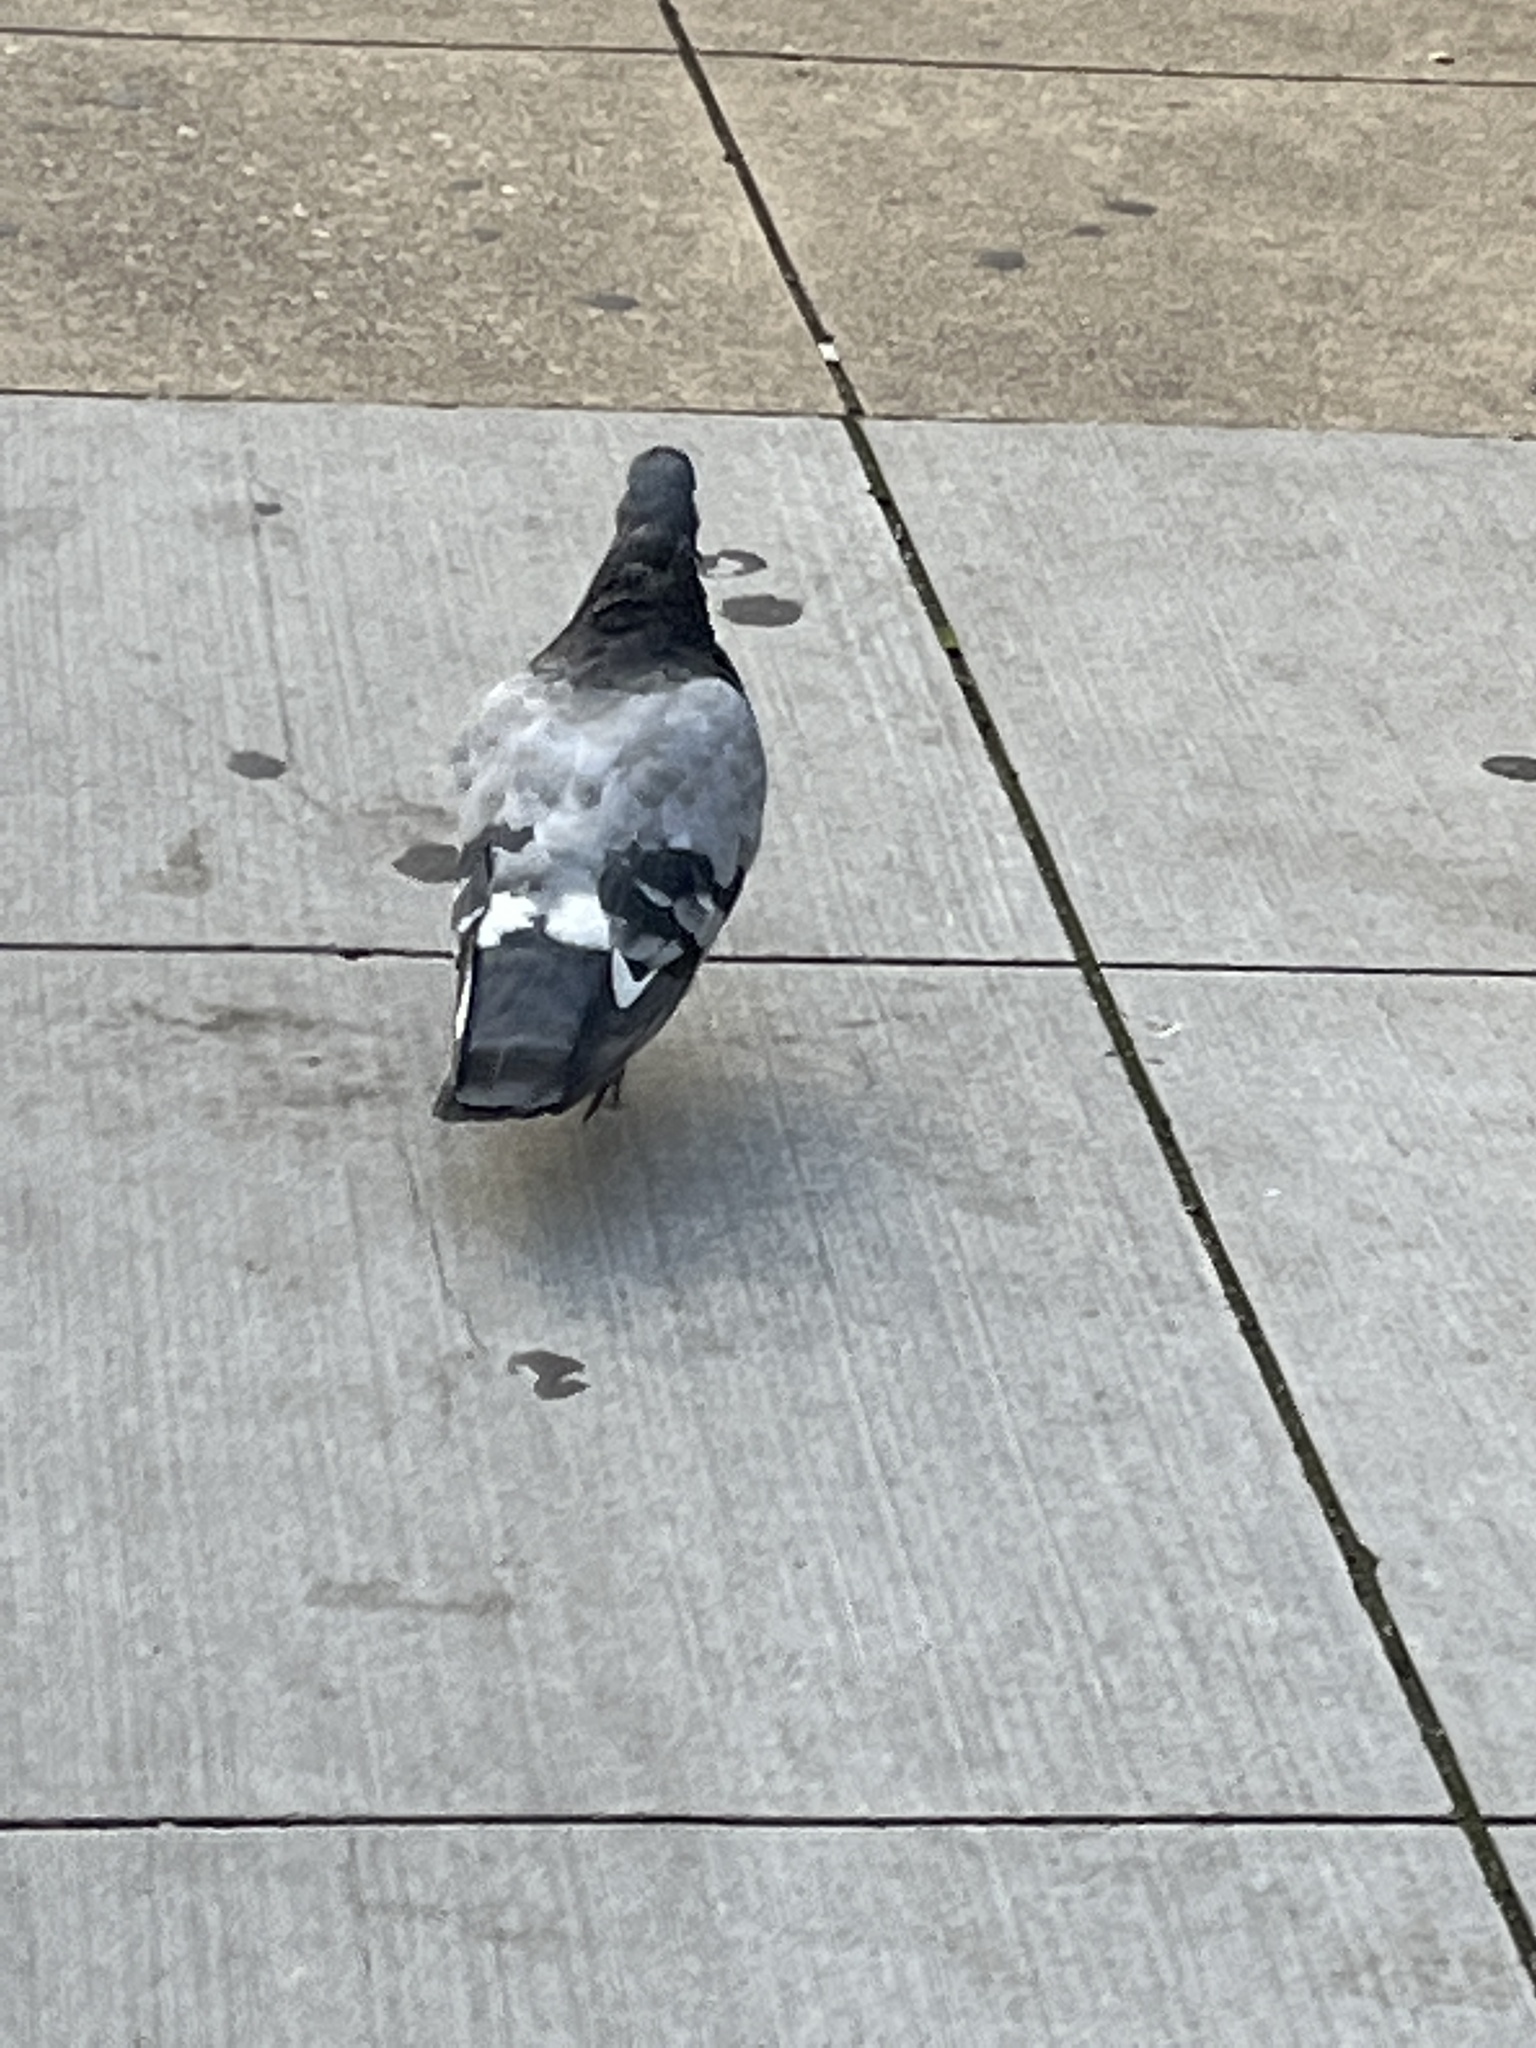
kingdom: Animalia
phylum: Chordata
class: Aves
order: Columbiformes
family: Columbidae
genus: Columba
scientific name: Columba livia
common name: Rock pigeon
